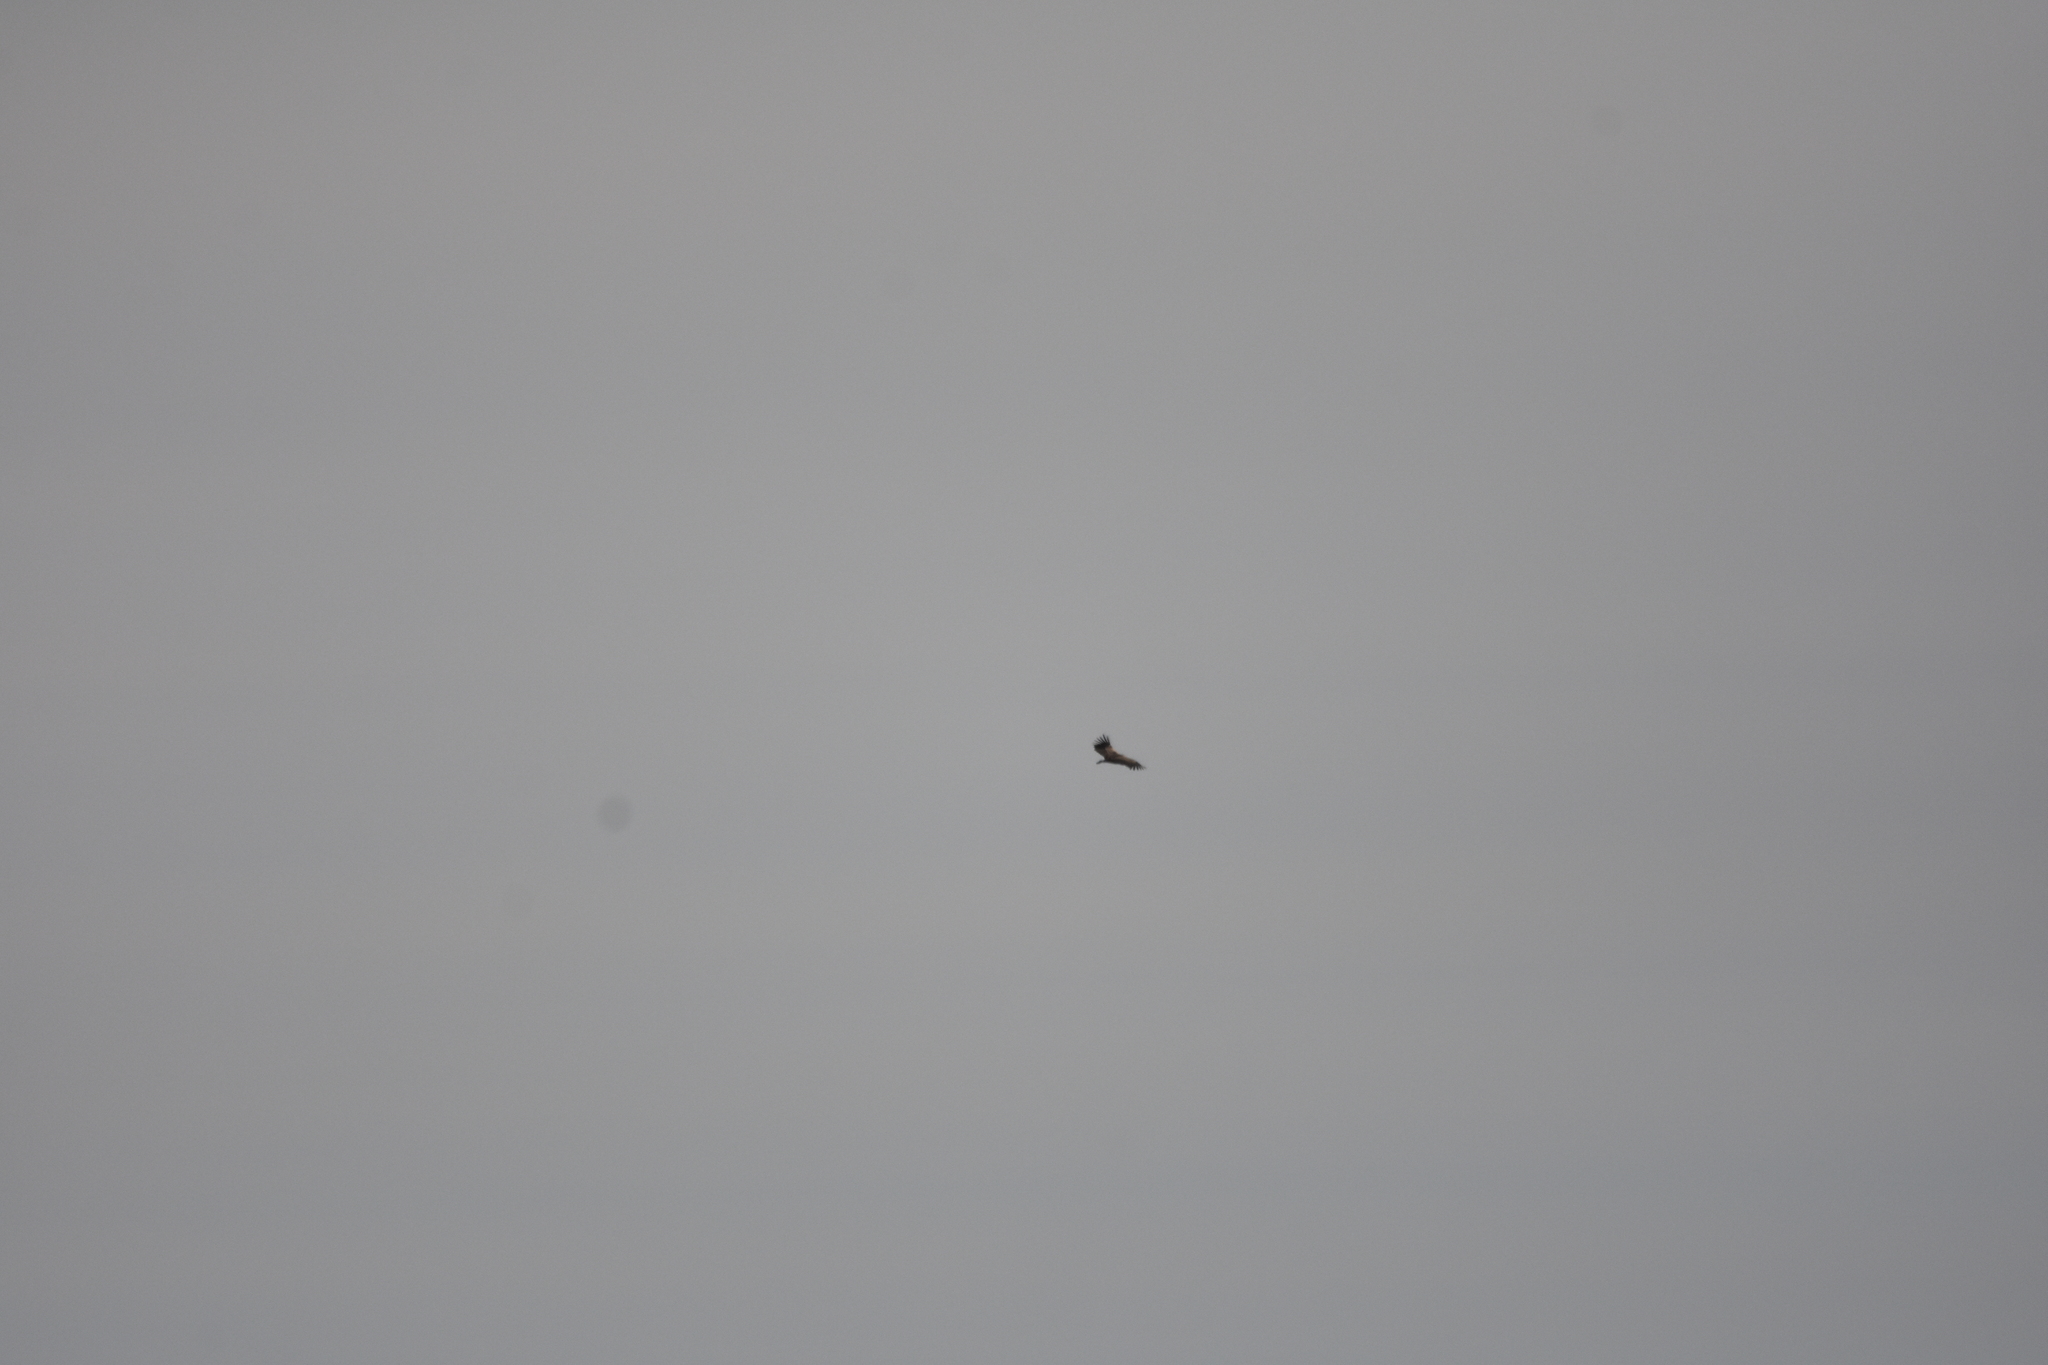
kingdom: Animalia
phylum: Chordata
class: Aves
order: Accipitriformes
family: Accipitridae
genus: Gyps
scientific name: Gyps fulvus
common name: Griffon vulture
